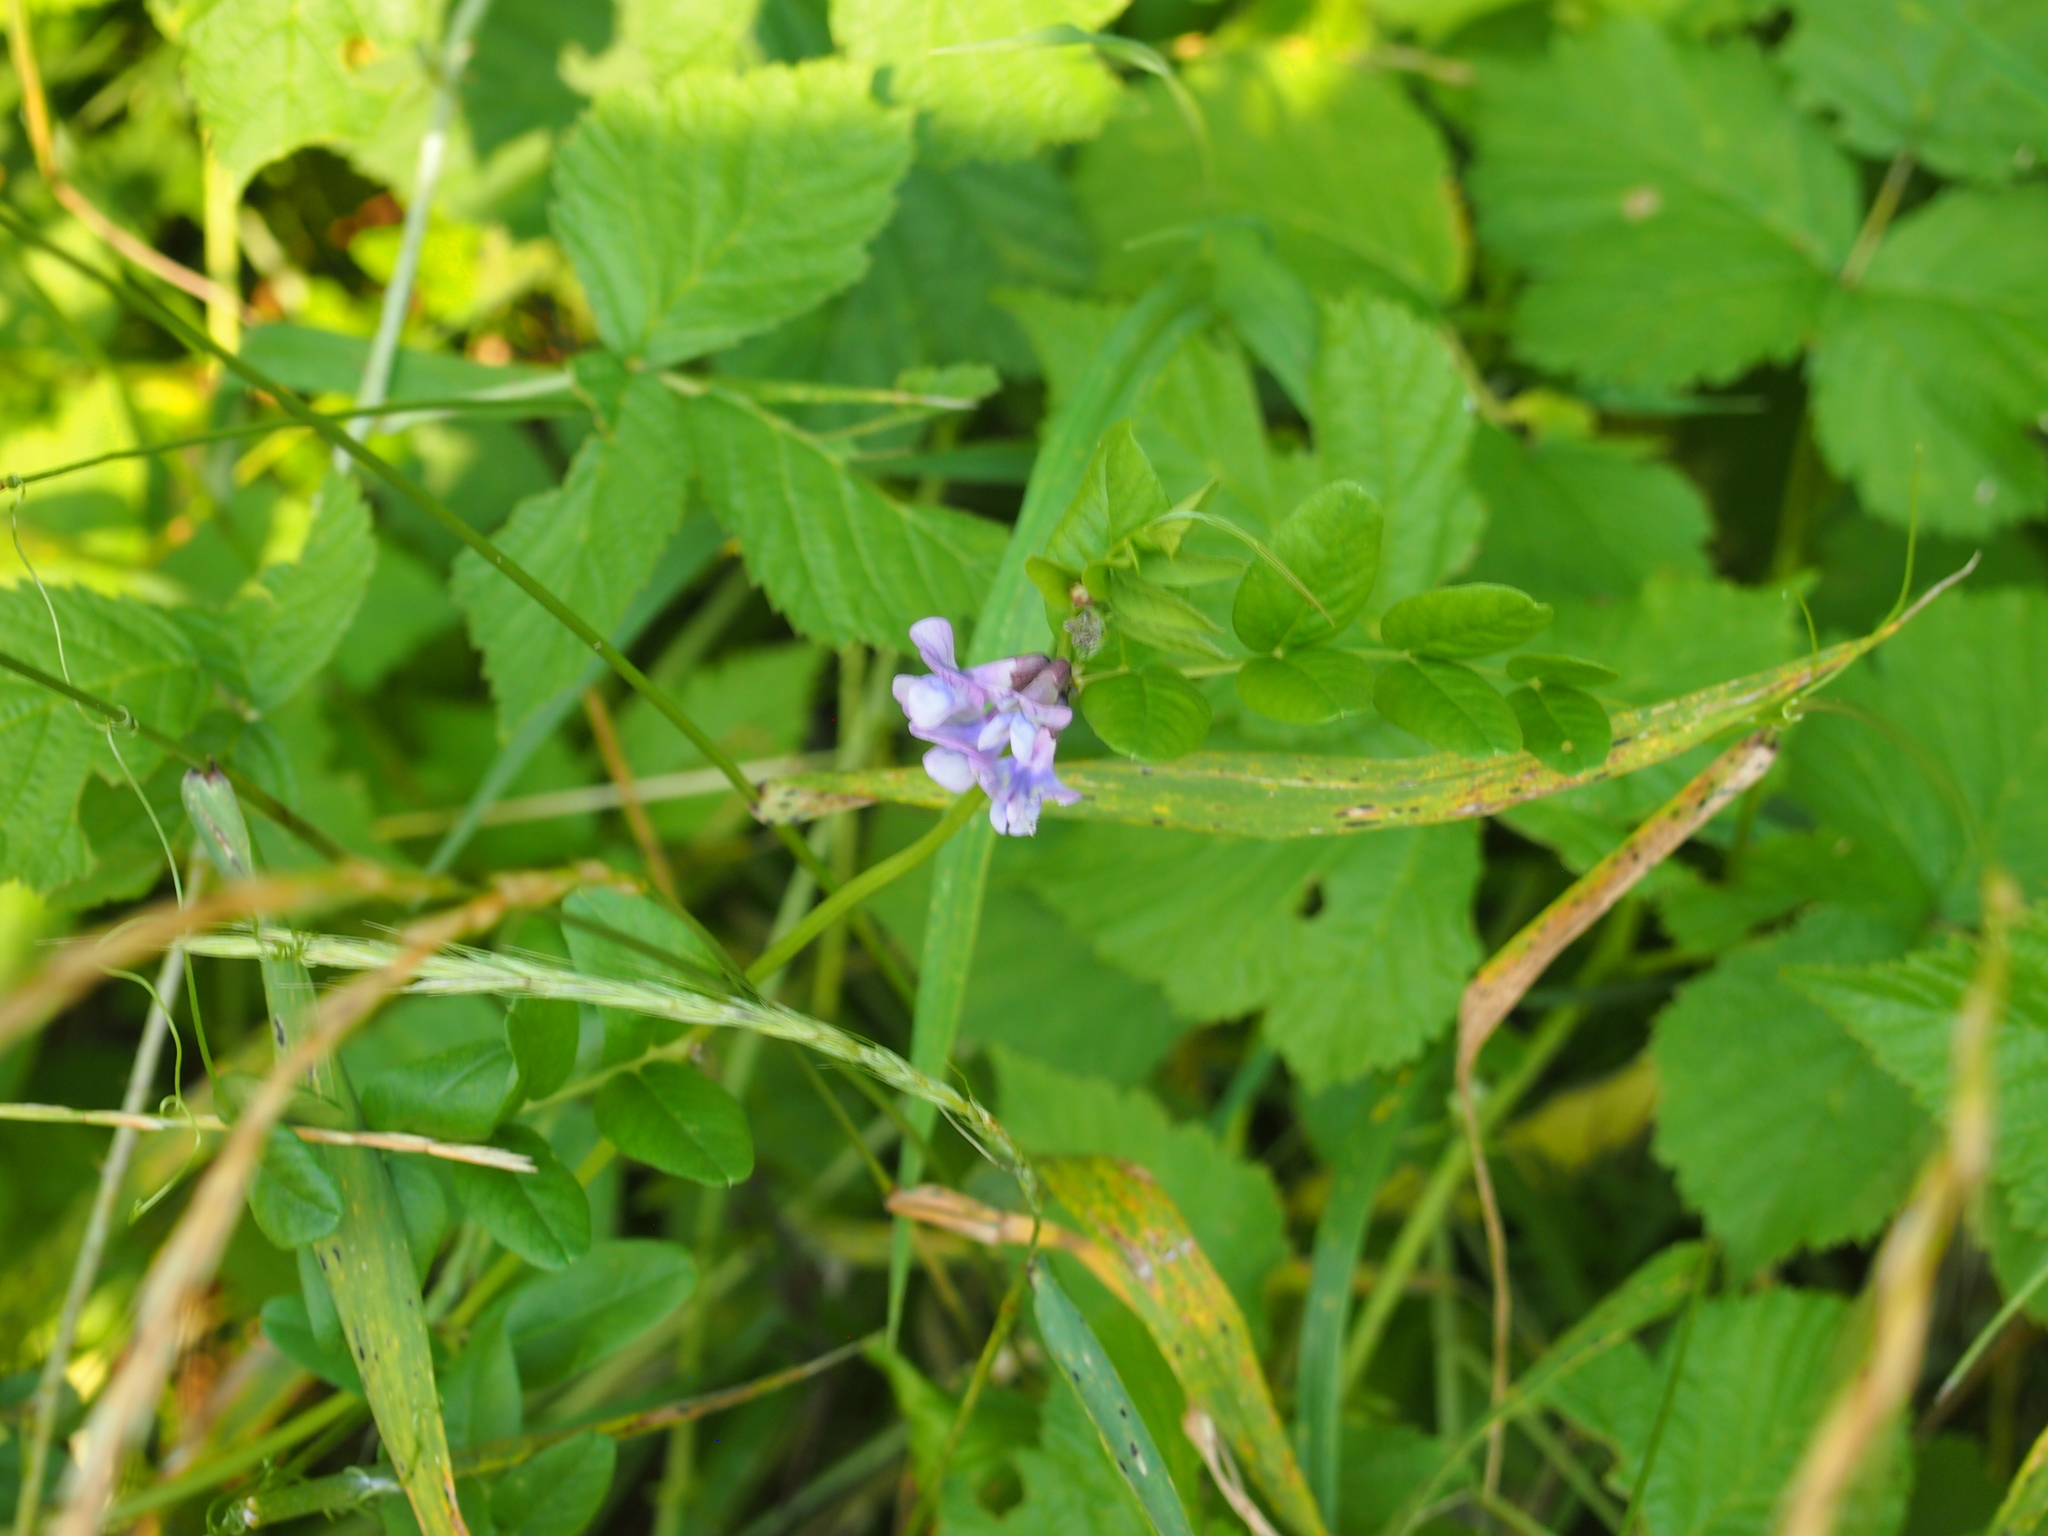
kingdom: Plantae
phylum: Tracheophyta
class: Magnoliopsida
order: Fabales
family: Fabaceae
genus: Vicia
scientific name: Vicia sepium
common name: Bush vetch
